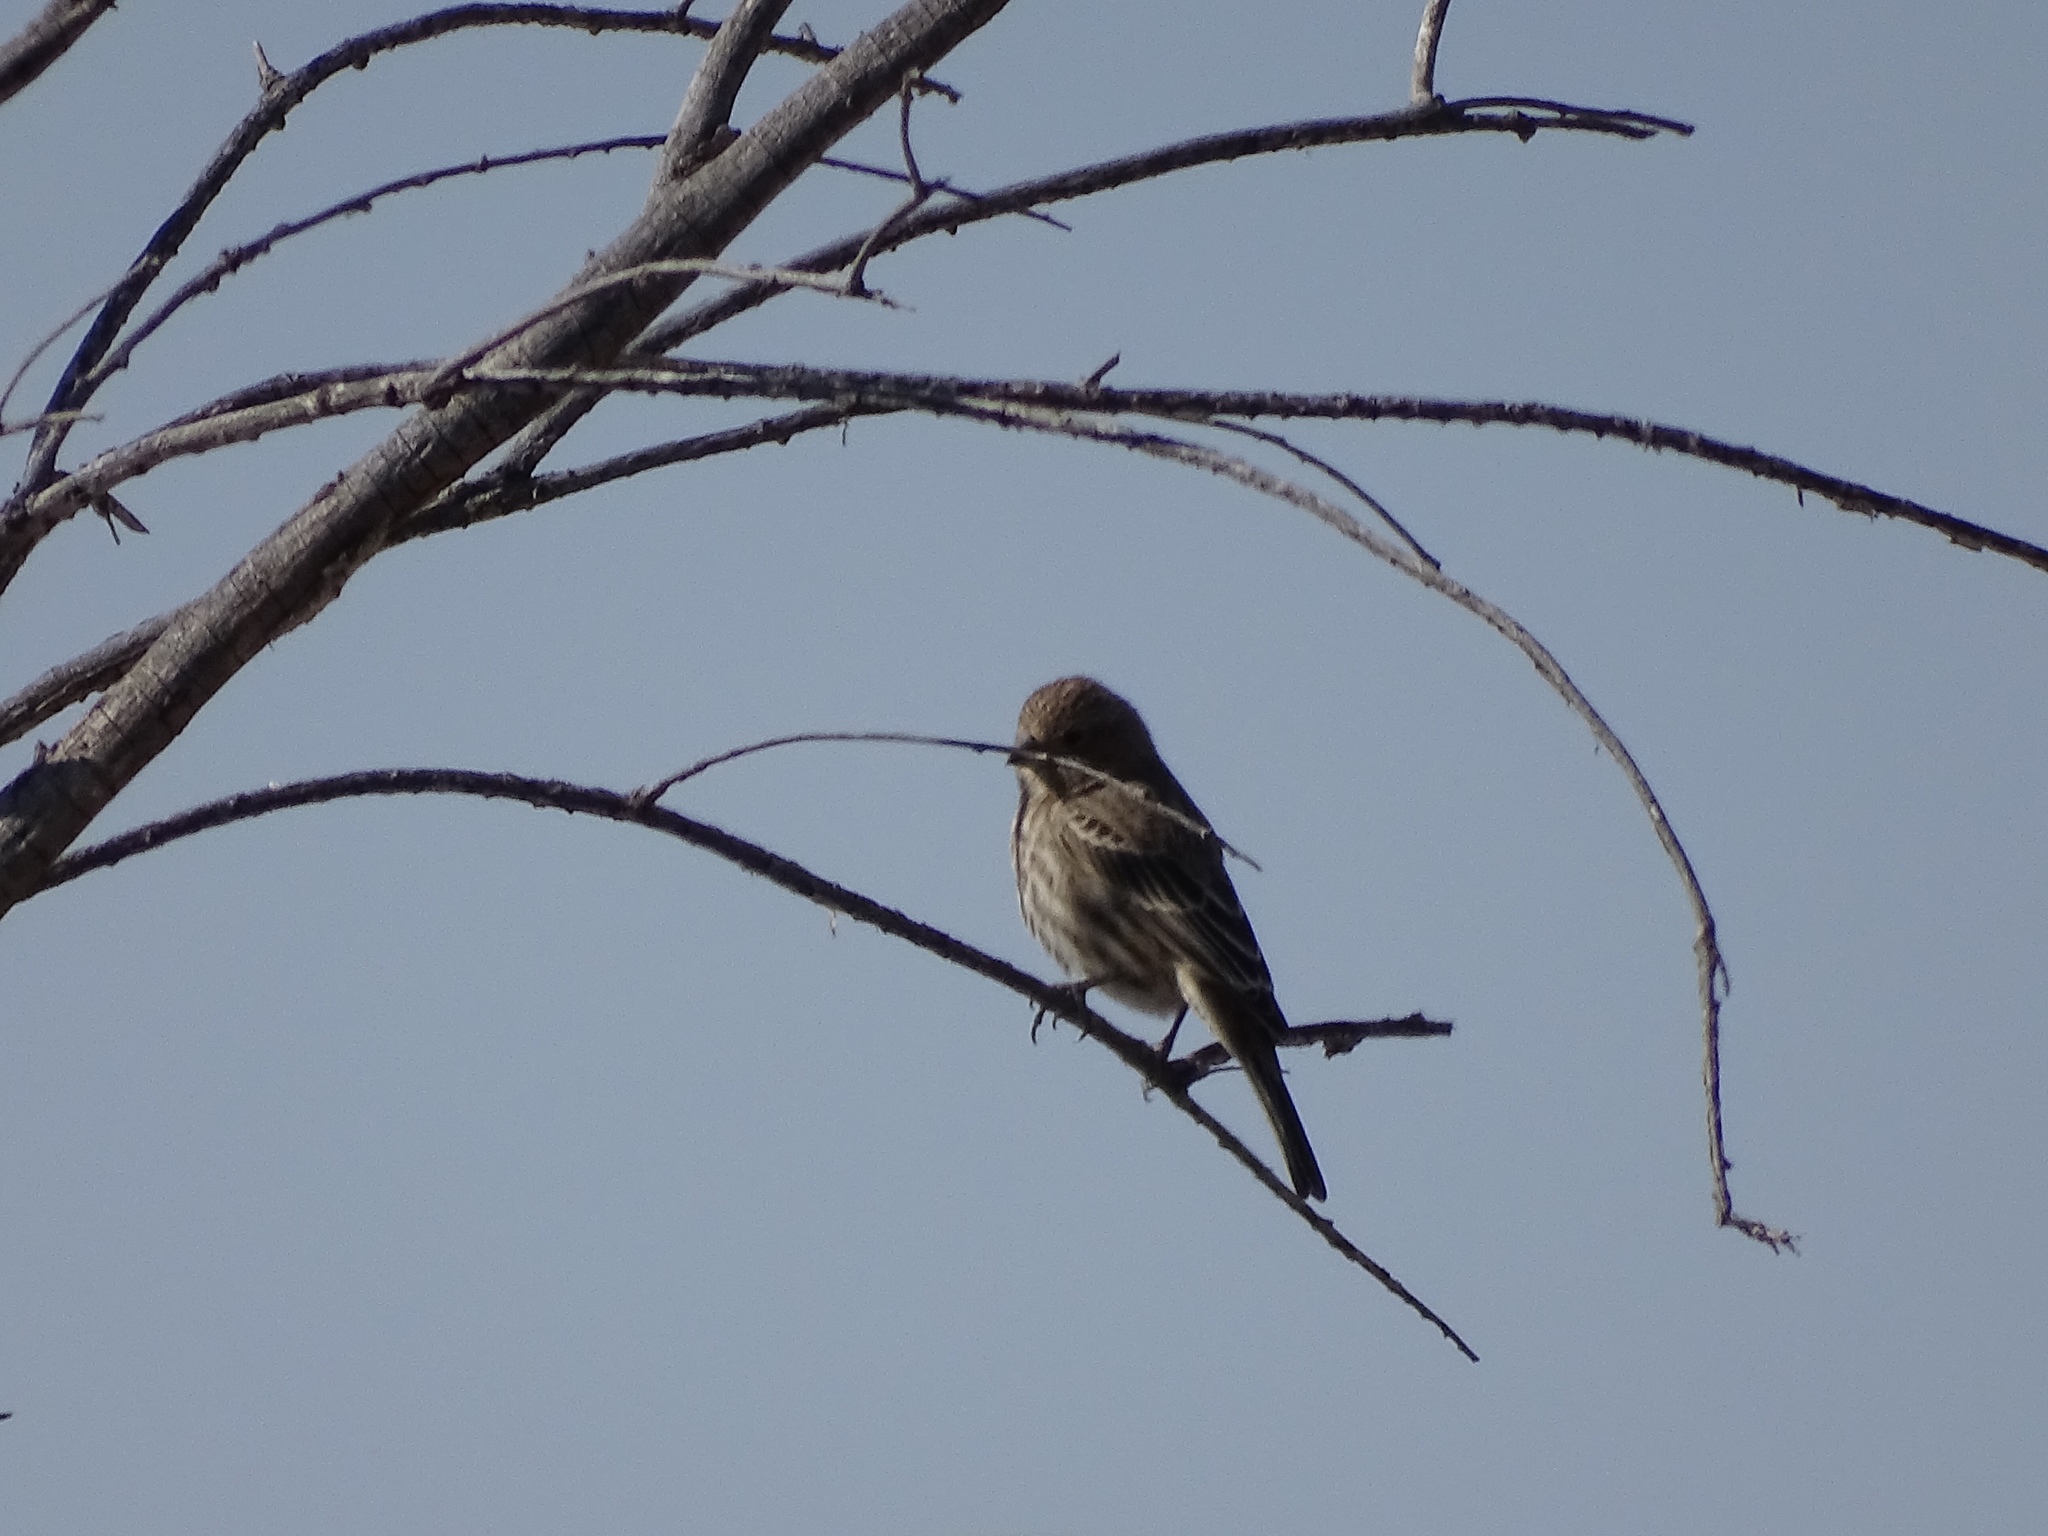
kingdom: Animalia
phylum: Chordata
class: Aves
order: Passeriformes
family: Fringillidae
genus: Haemorhous
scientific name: Haemorhous mexicanus
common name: House finch
